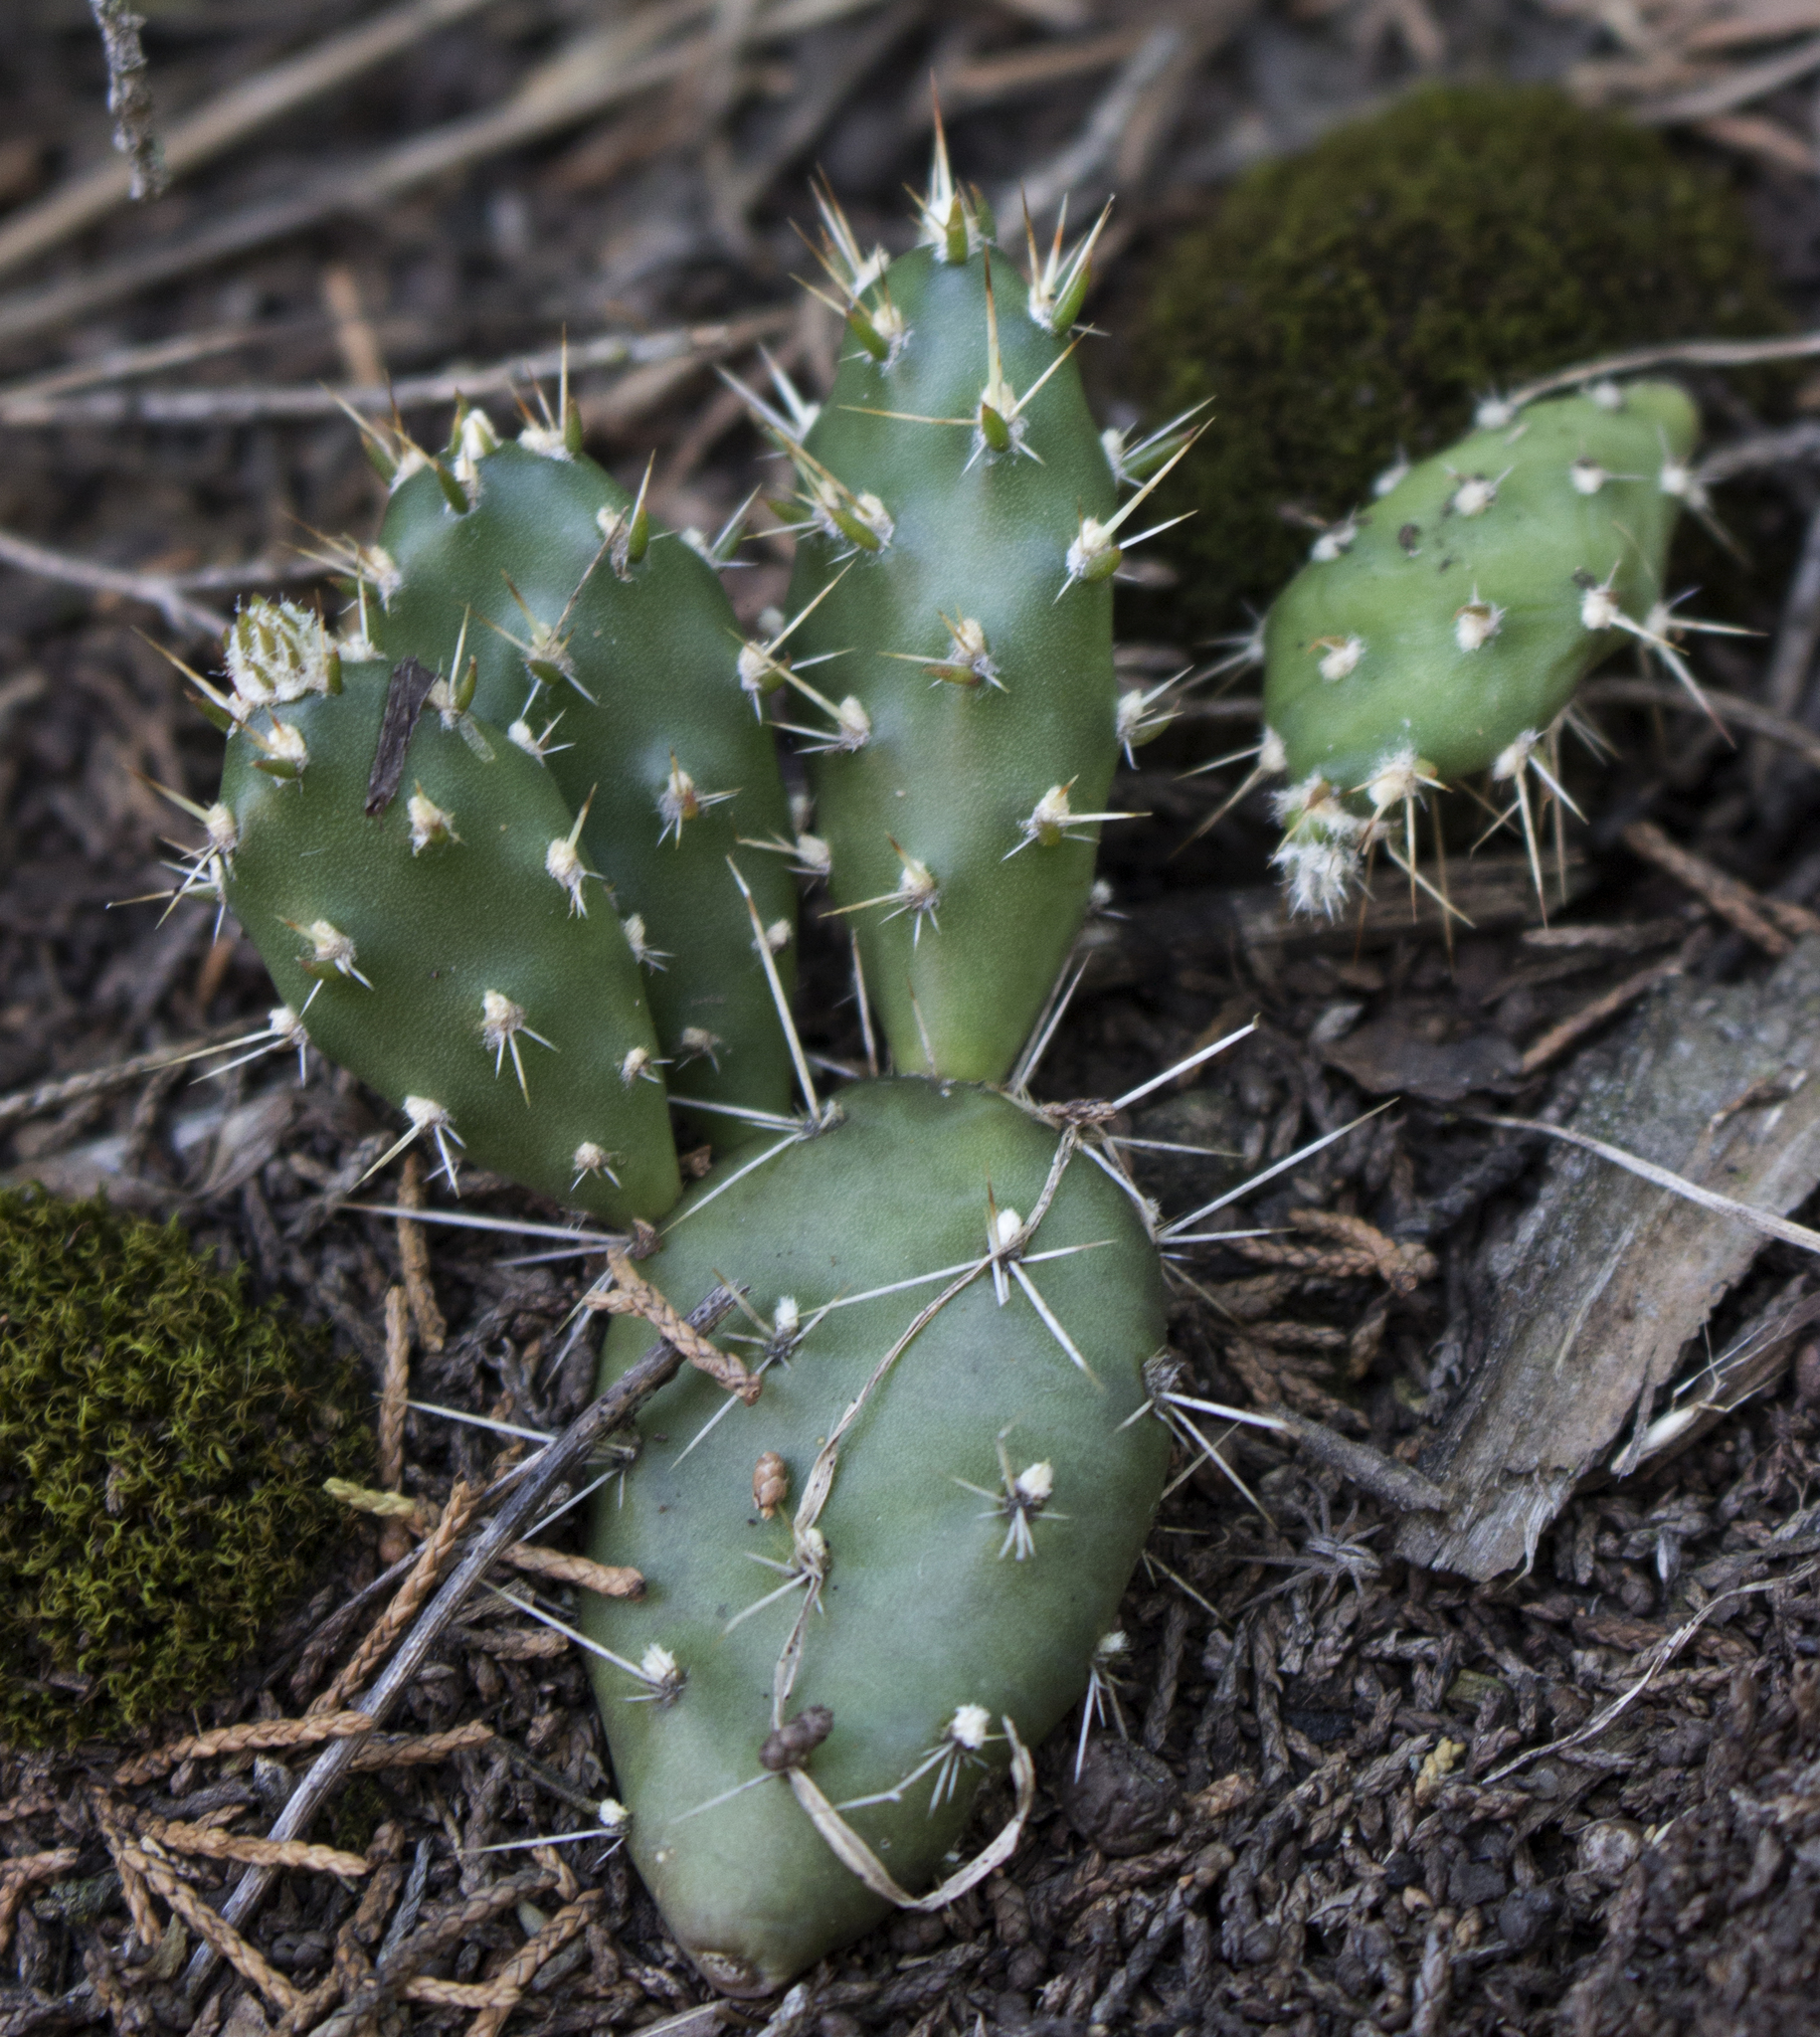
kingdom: Plantae
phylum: Tracheophyta
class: Magnoliopsida
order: Caryophyllales
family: Cactaceae
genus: Opuntia
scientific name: Opuntia fragilis
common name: Brittle cactus
